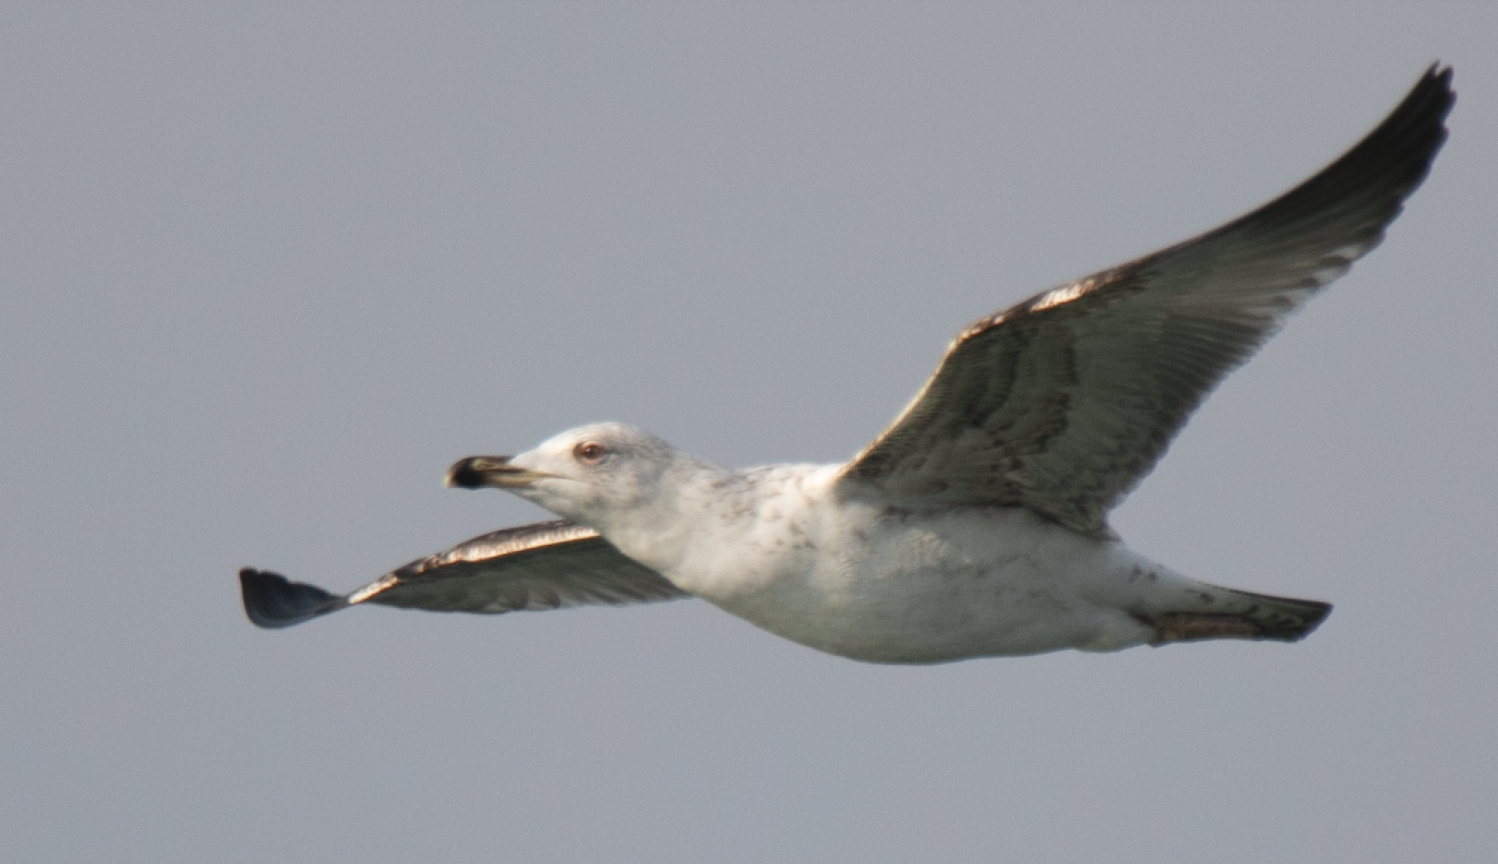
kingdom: Animalia
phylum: Chordata
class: Aves
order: Charadriiformes
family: Laridae
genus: Larus
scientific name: Larus michahellis
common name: Yellow-legged gull
